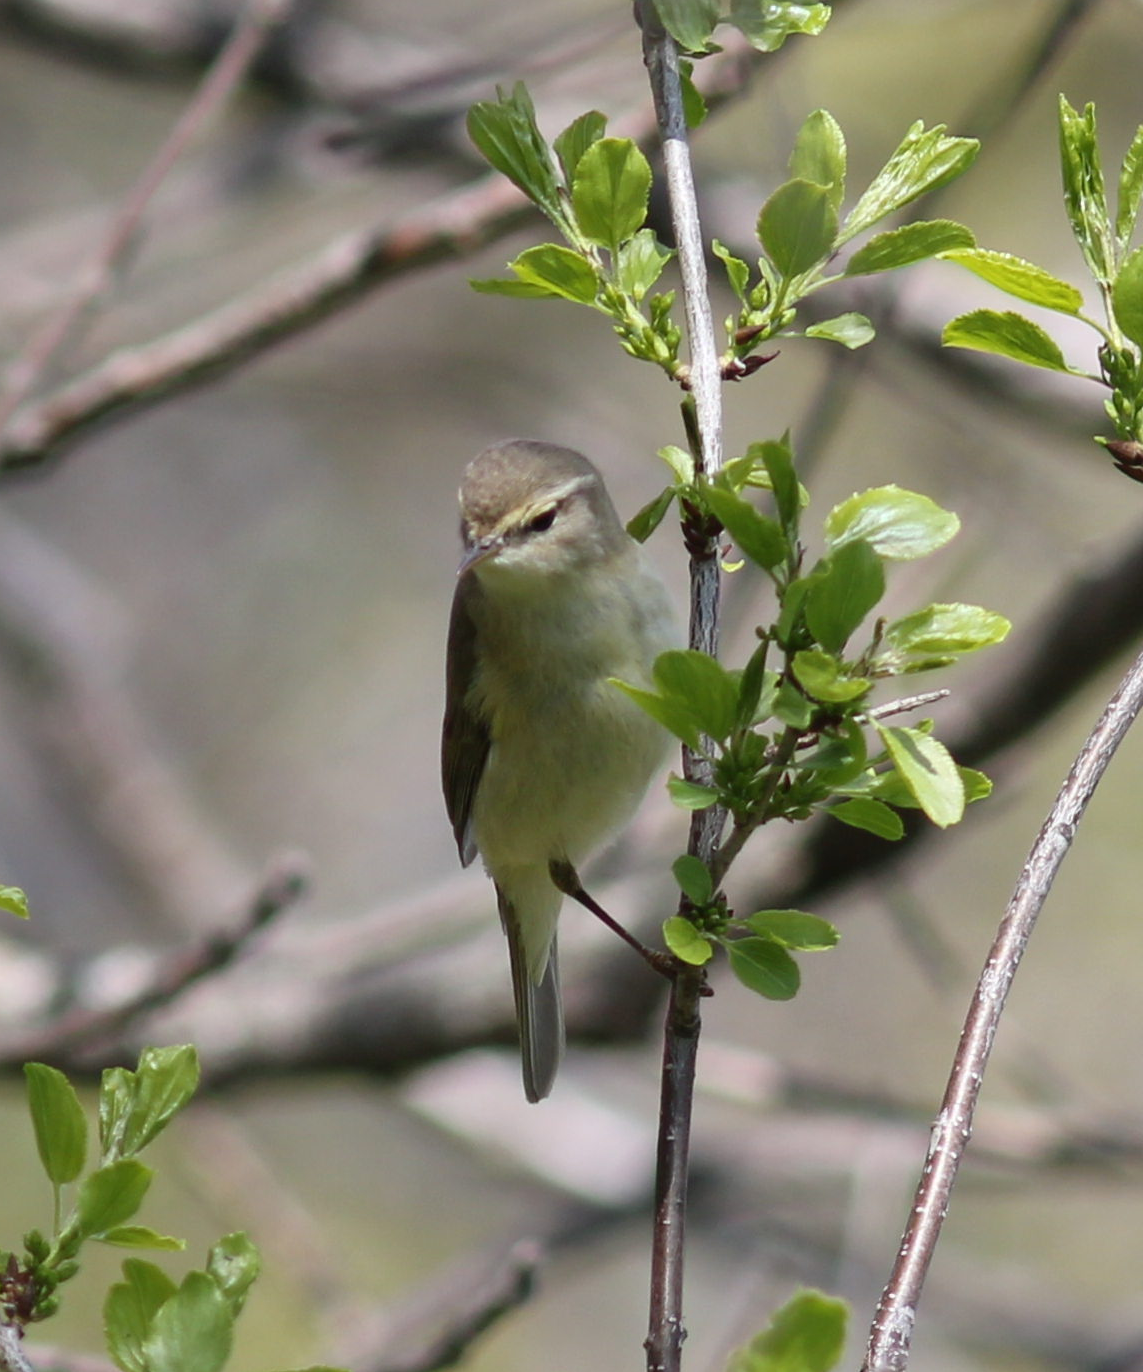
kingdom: Animalia
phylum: Chordata
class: Aves
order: Passeriformes
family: Phylloscopidae
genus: Phylloscopus
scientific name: Phylloscopus collybita
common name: Common chiffchaff
